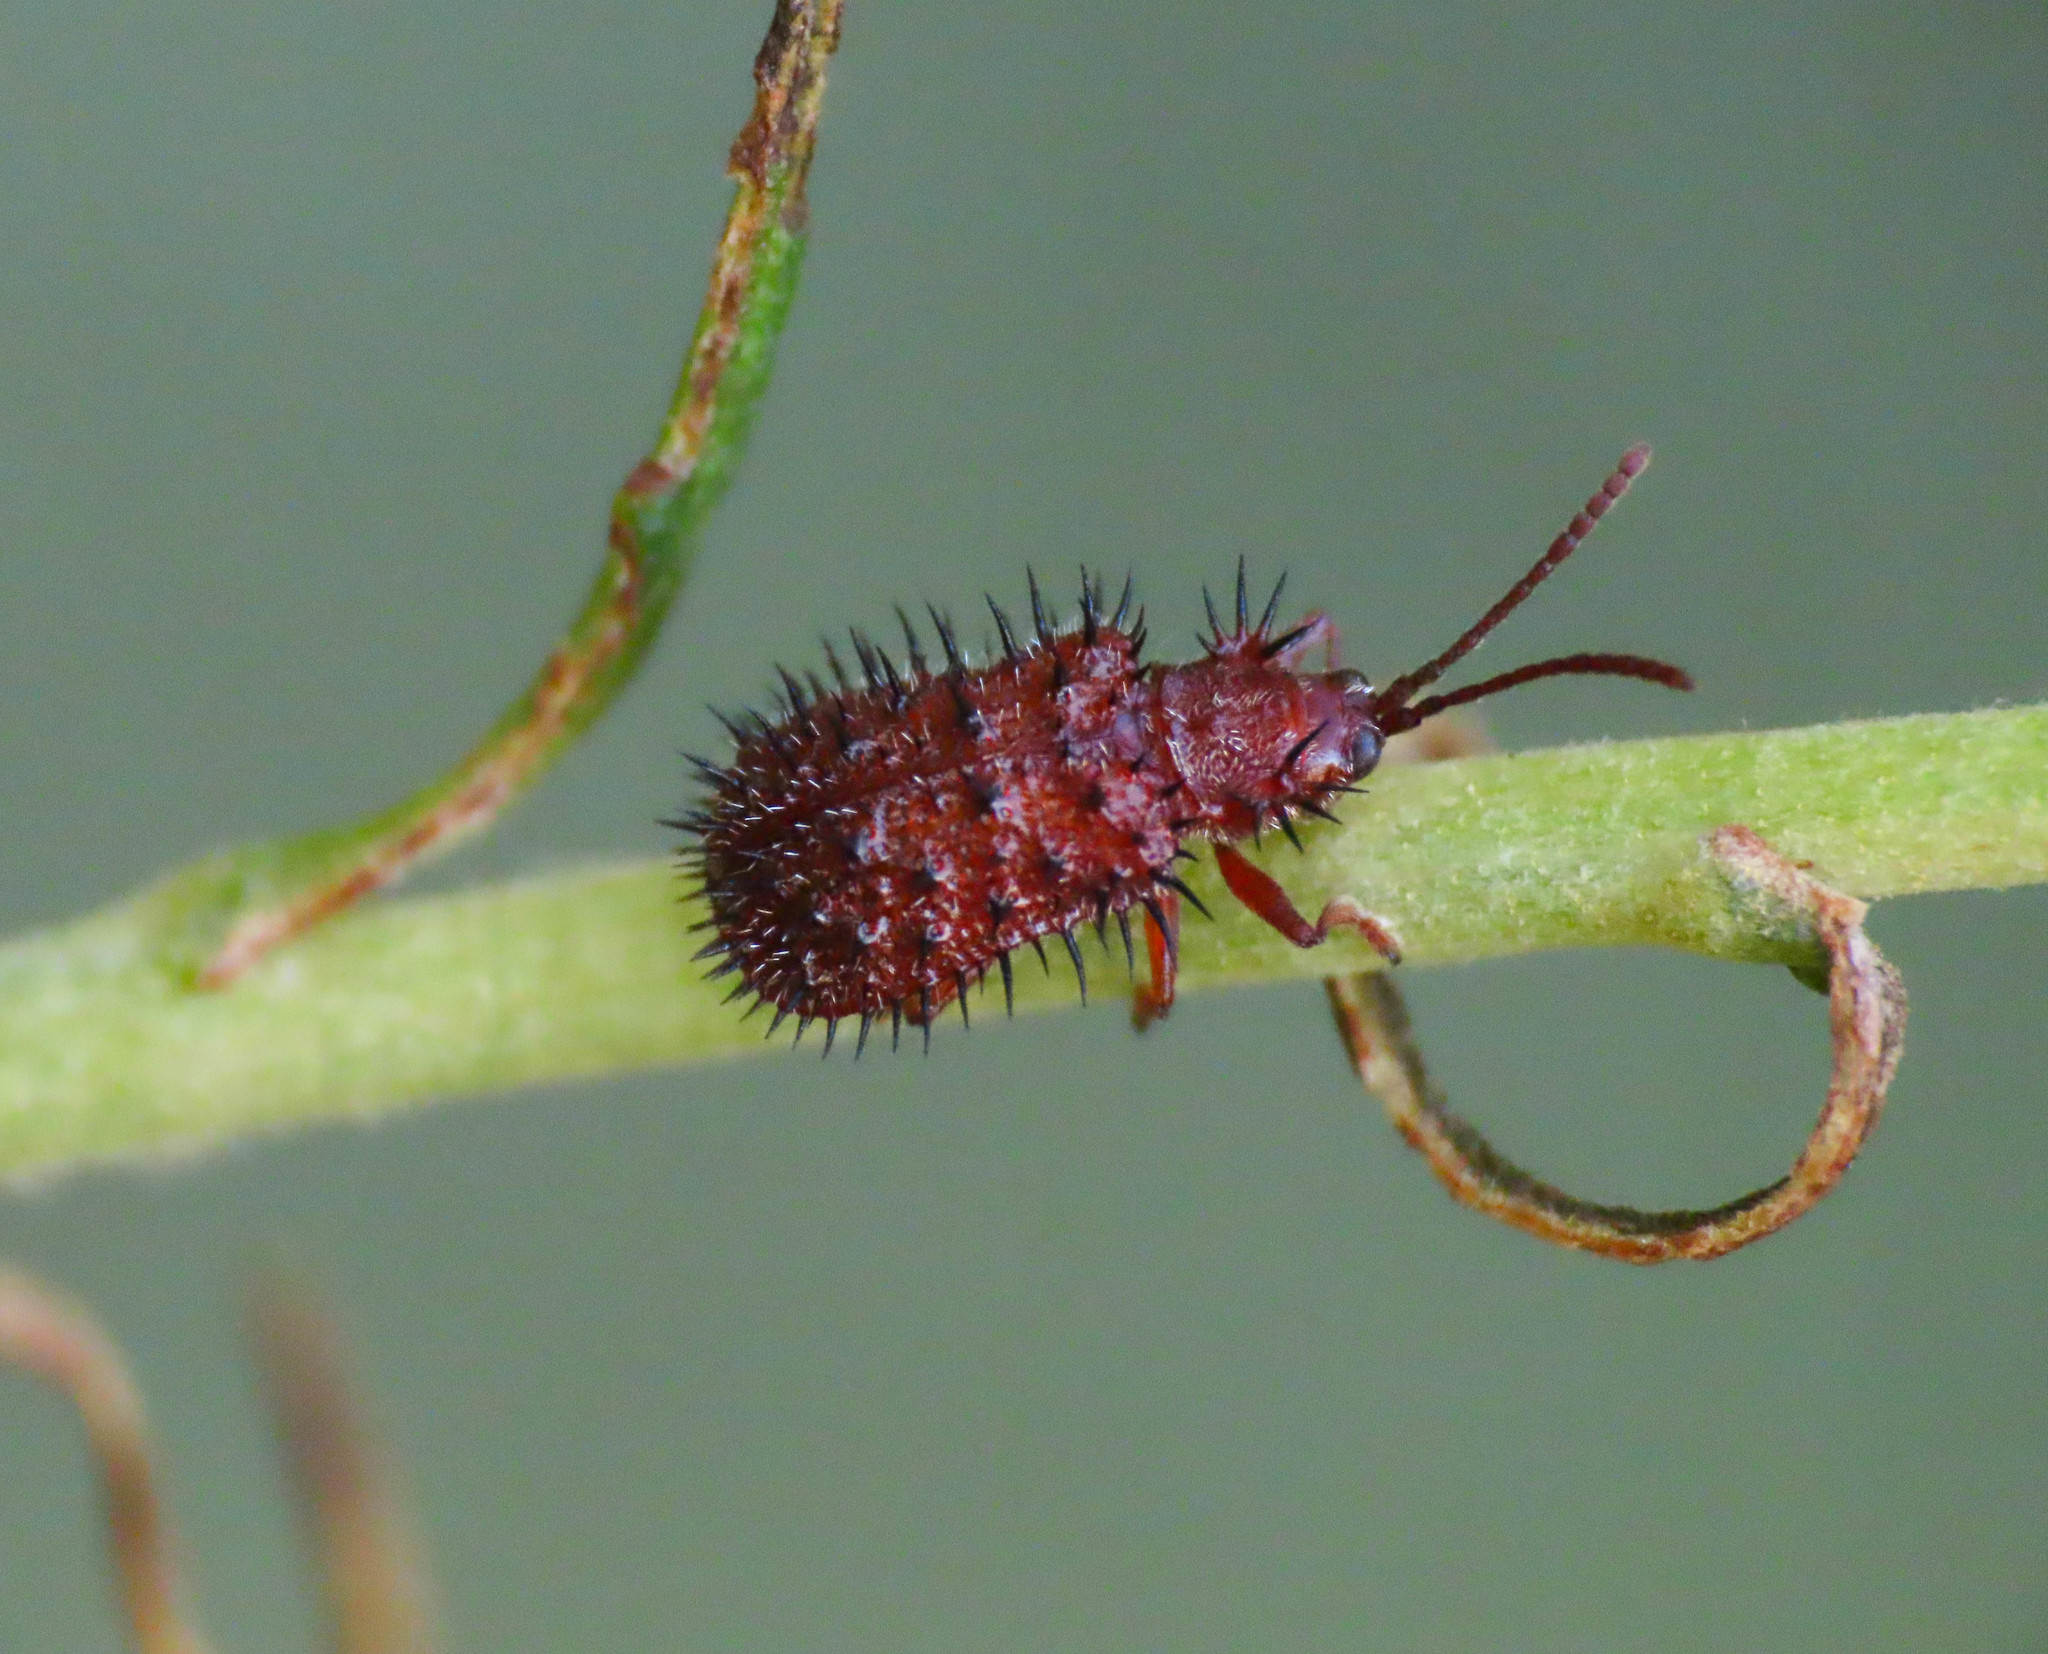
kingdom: Animalia
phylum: Arthropoda
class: Insecta
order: Coleoptera
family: Chrysomelidae
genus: Dicladispa
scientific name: Dicladispa testacea
